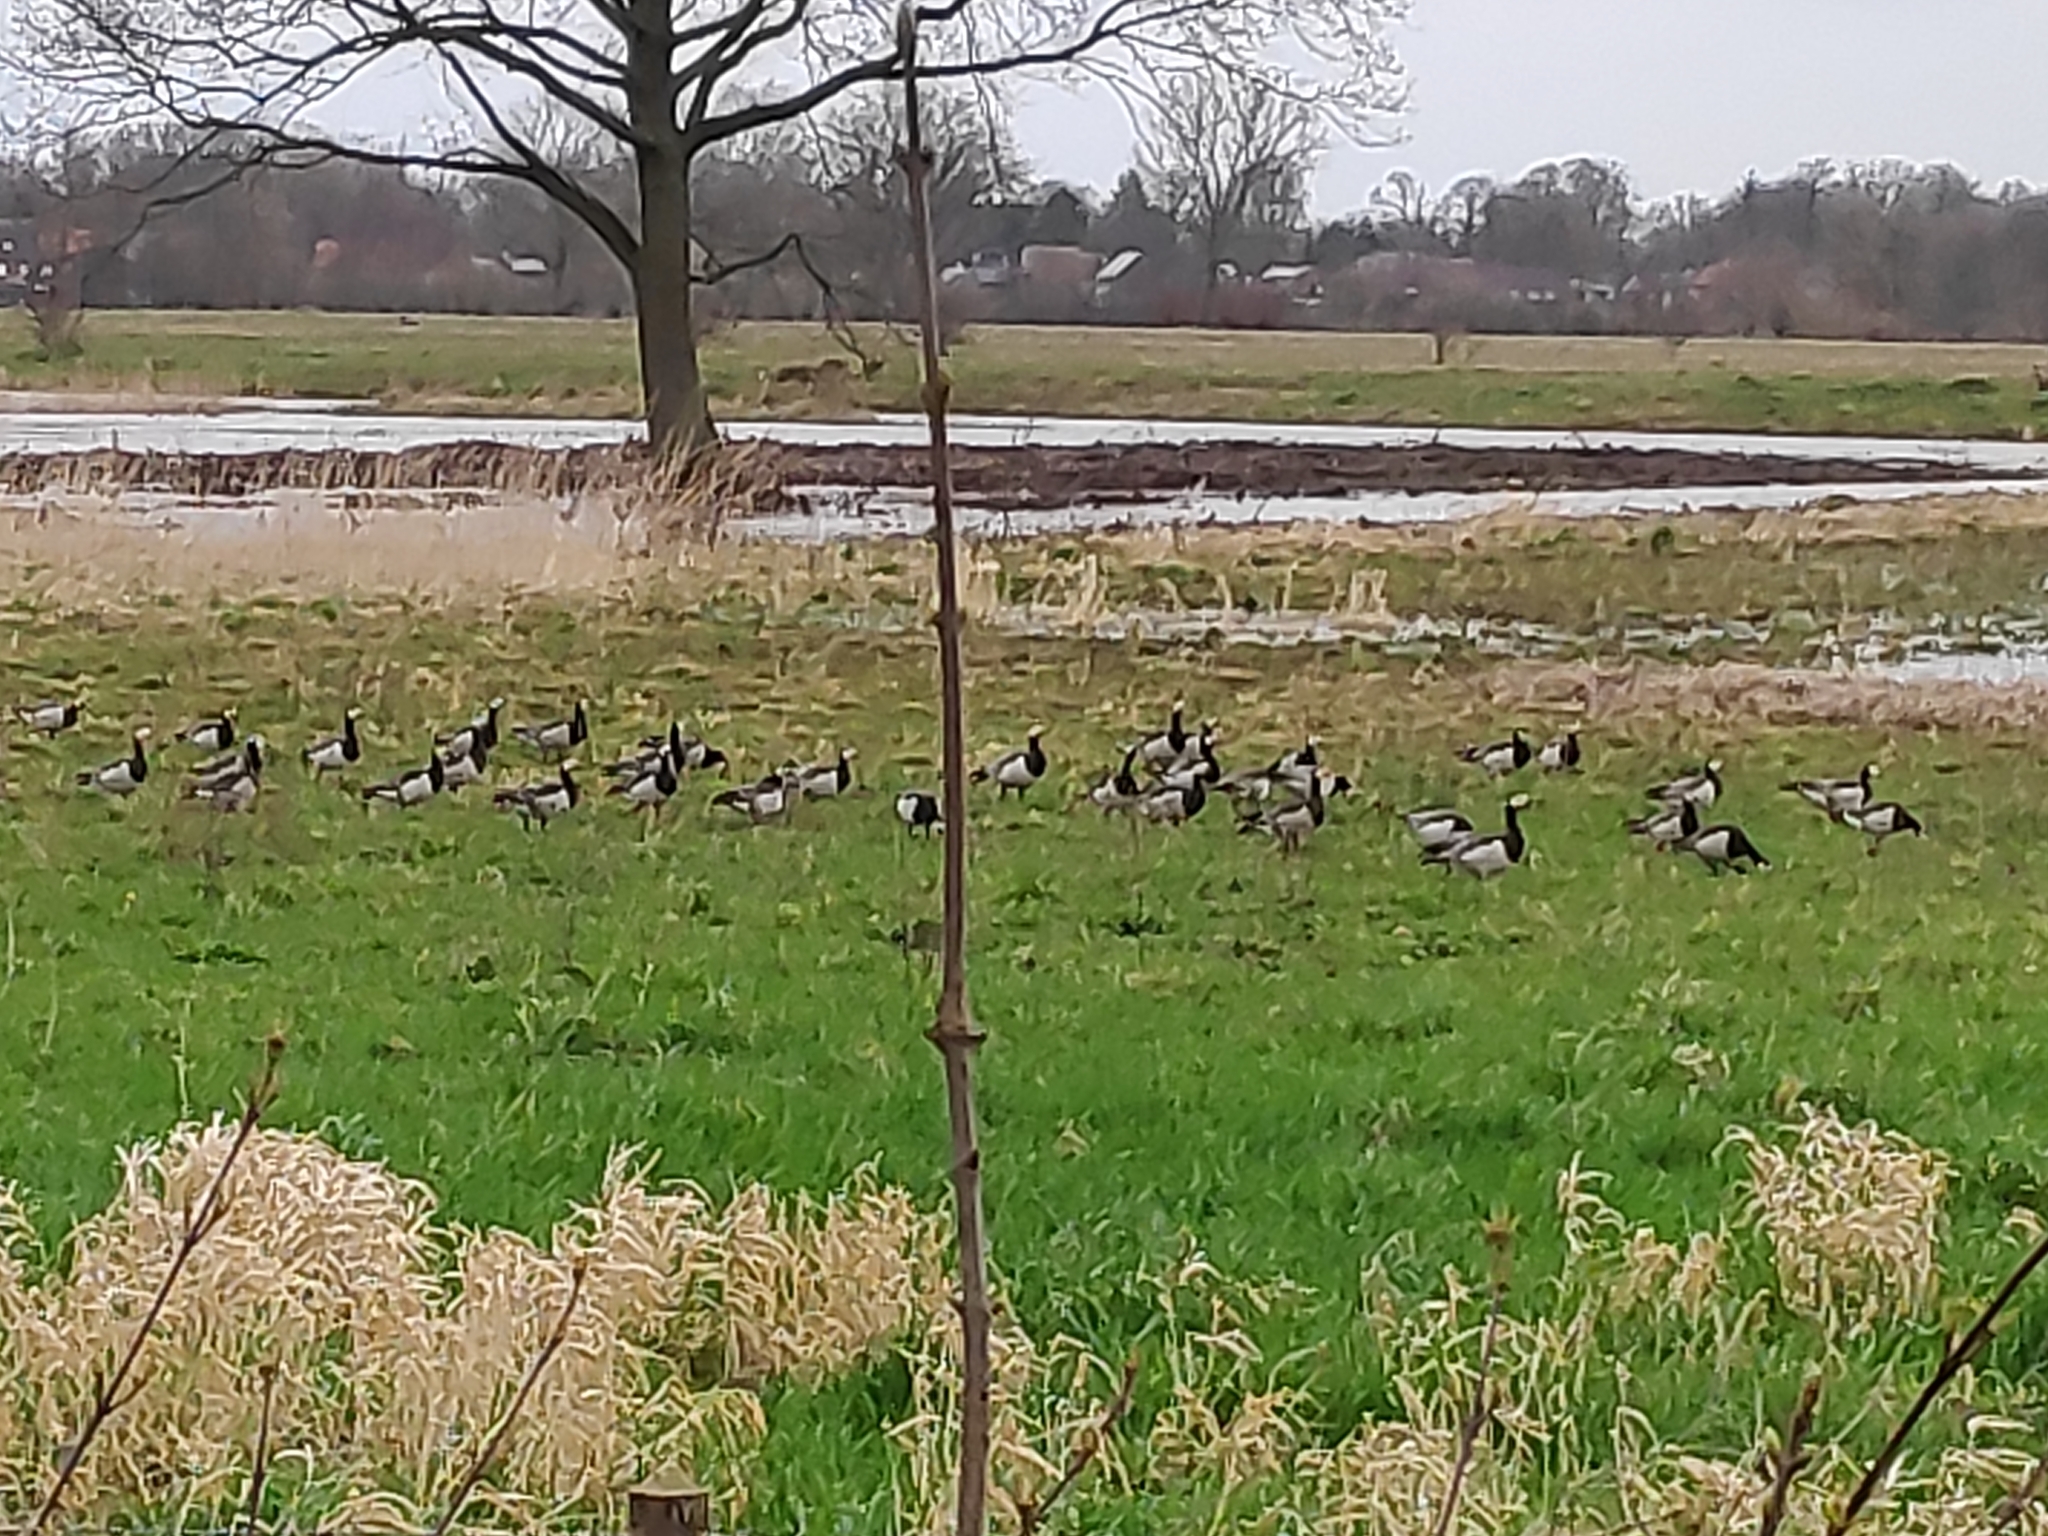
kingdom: Animalia
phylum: Chordata
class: Aves
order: Anseriformes
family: Anatidae
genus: Branta
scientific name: Branta leucopsis
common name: Barnacle goose
